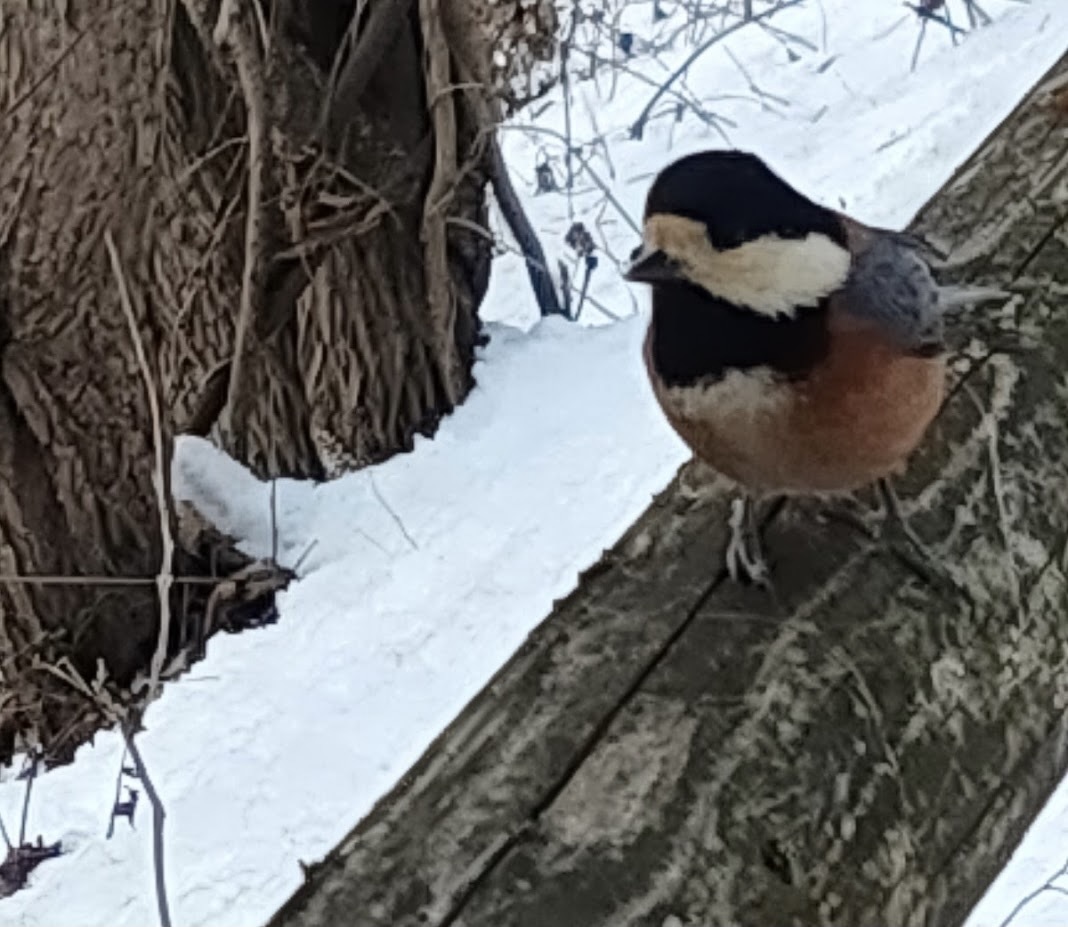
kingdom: Animalia
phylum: Chordata
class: Aves
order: Passeriformes
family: Paridae
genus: Poecile
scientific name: Poecile varius
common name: Varied tit
